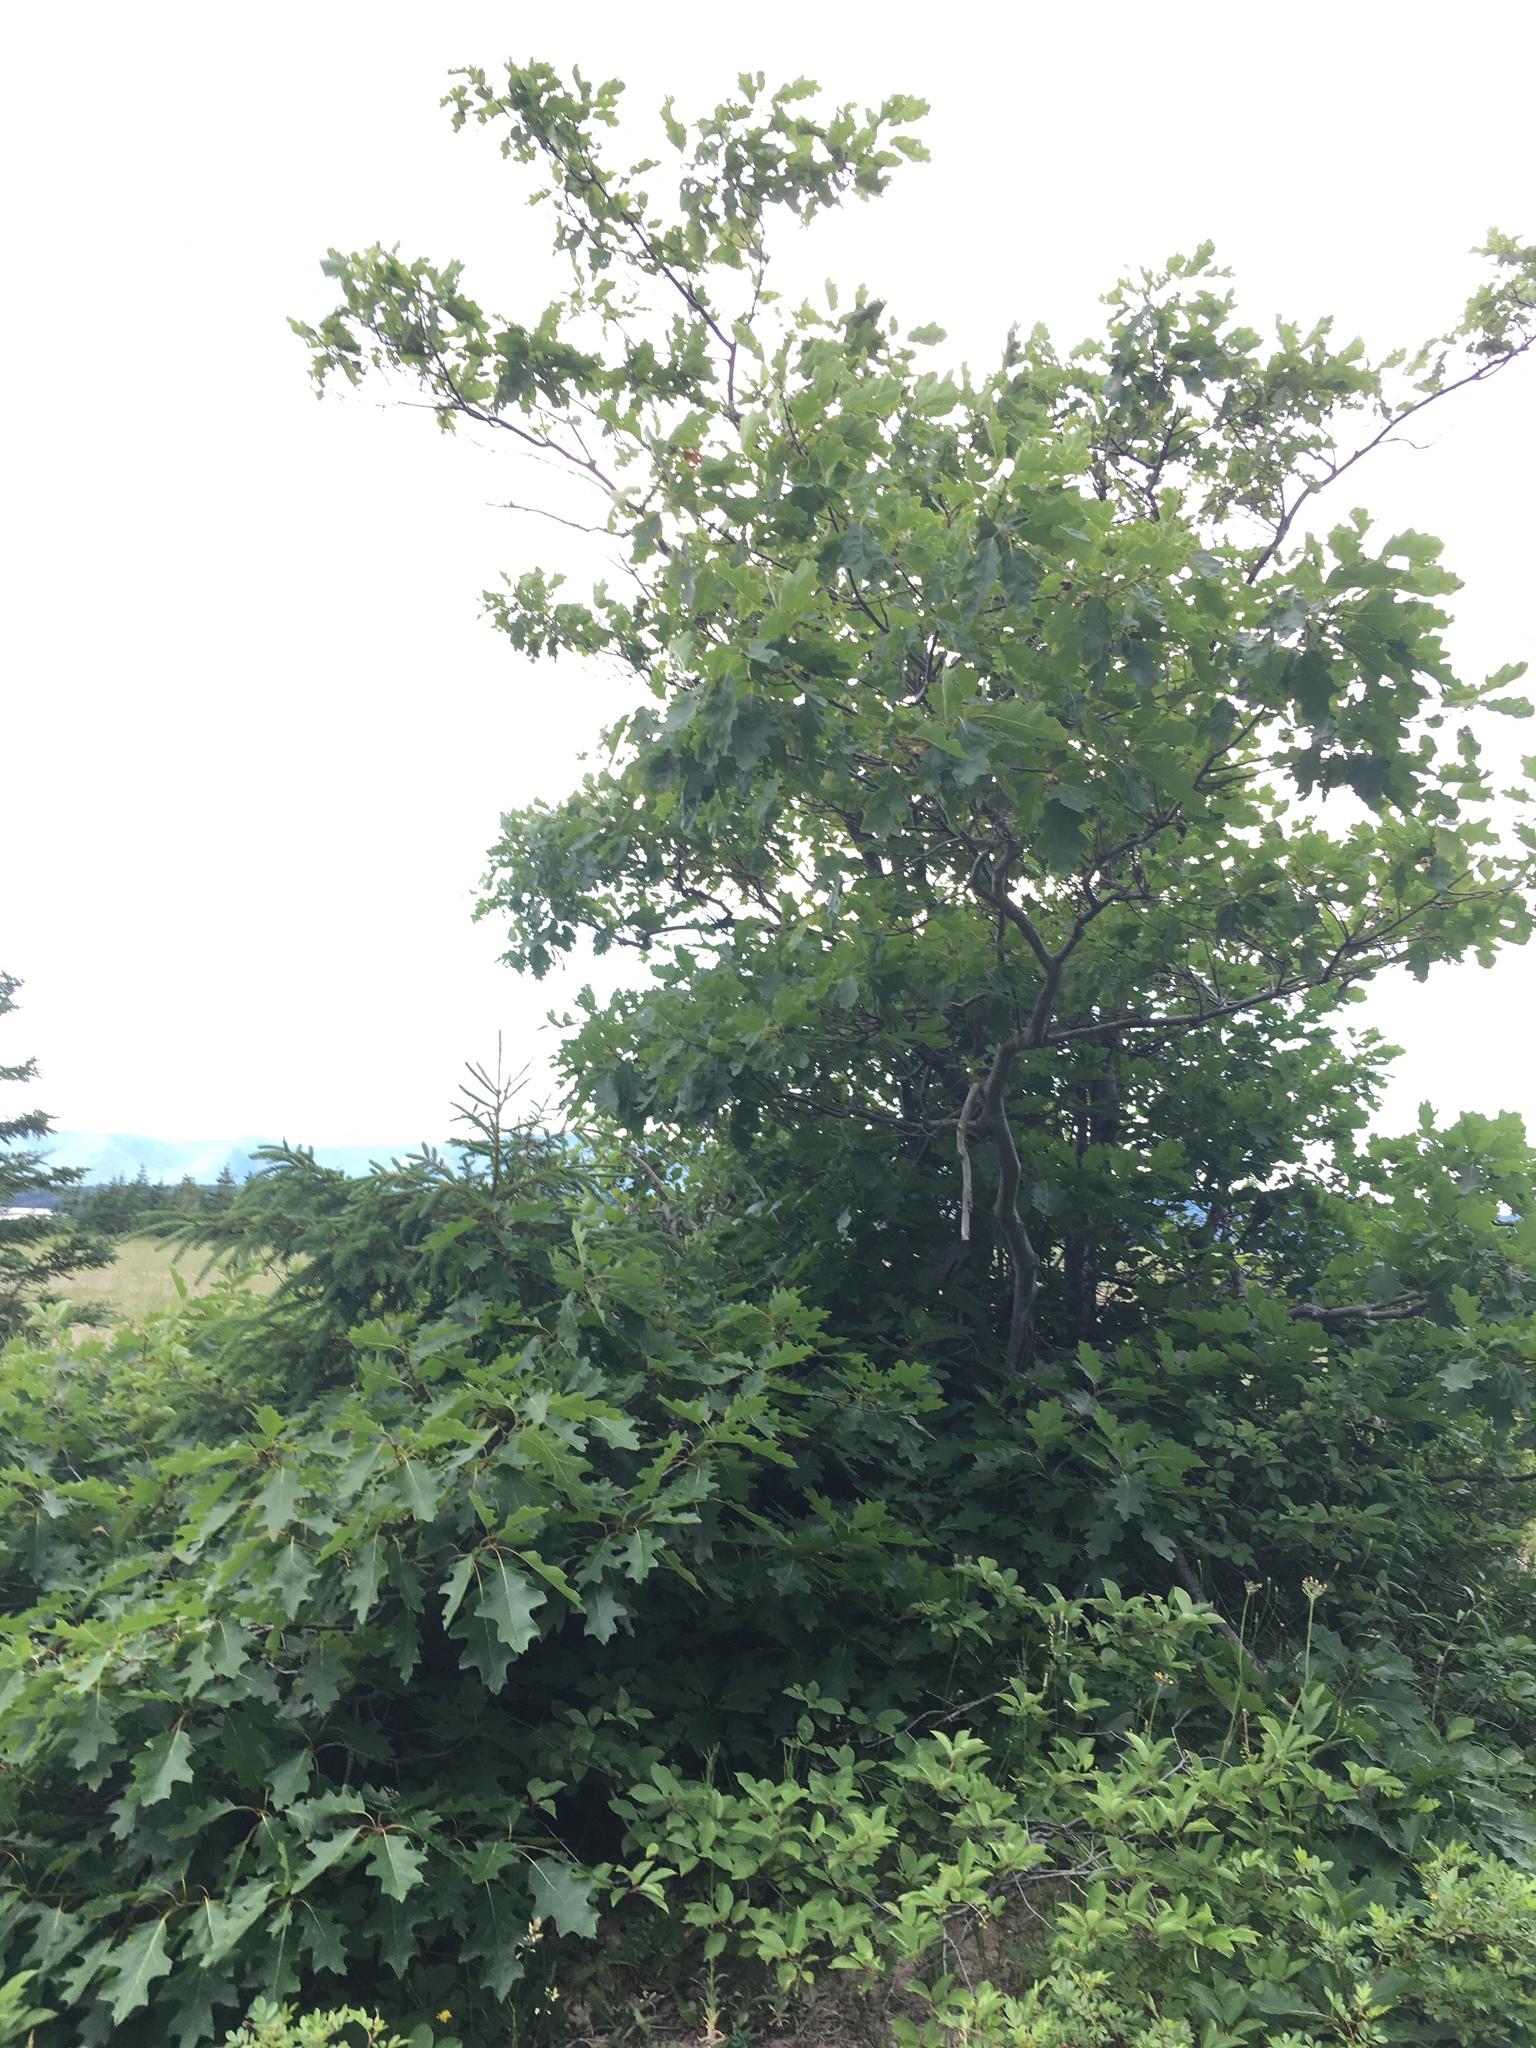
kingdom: Plantae
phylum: Tracheophyta
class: Magnoliopsida
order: Fagales
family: Fagaceae
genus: Quercus
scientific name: Quercus rubra
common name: Red oak
